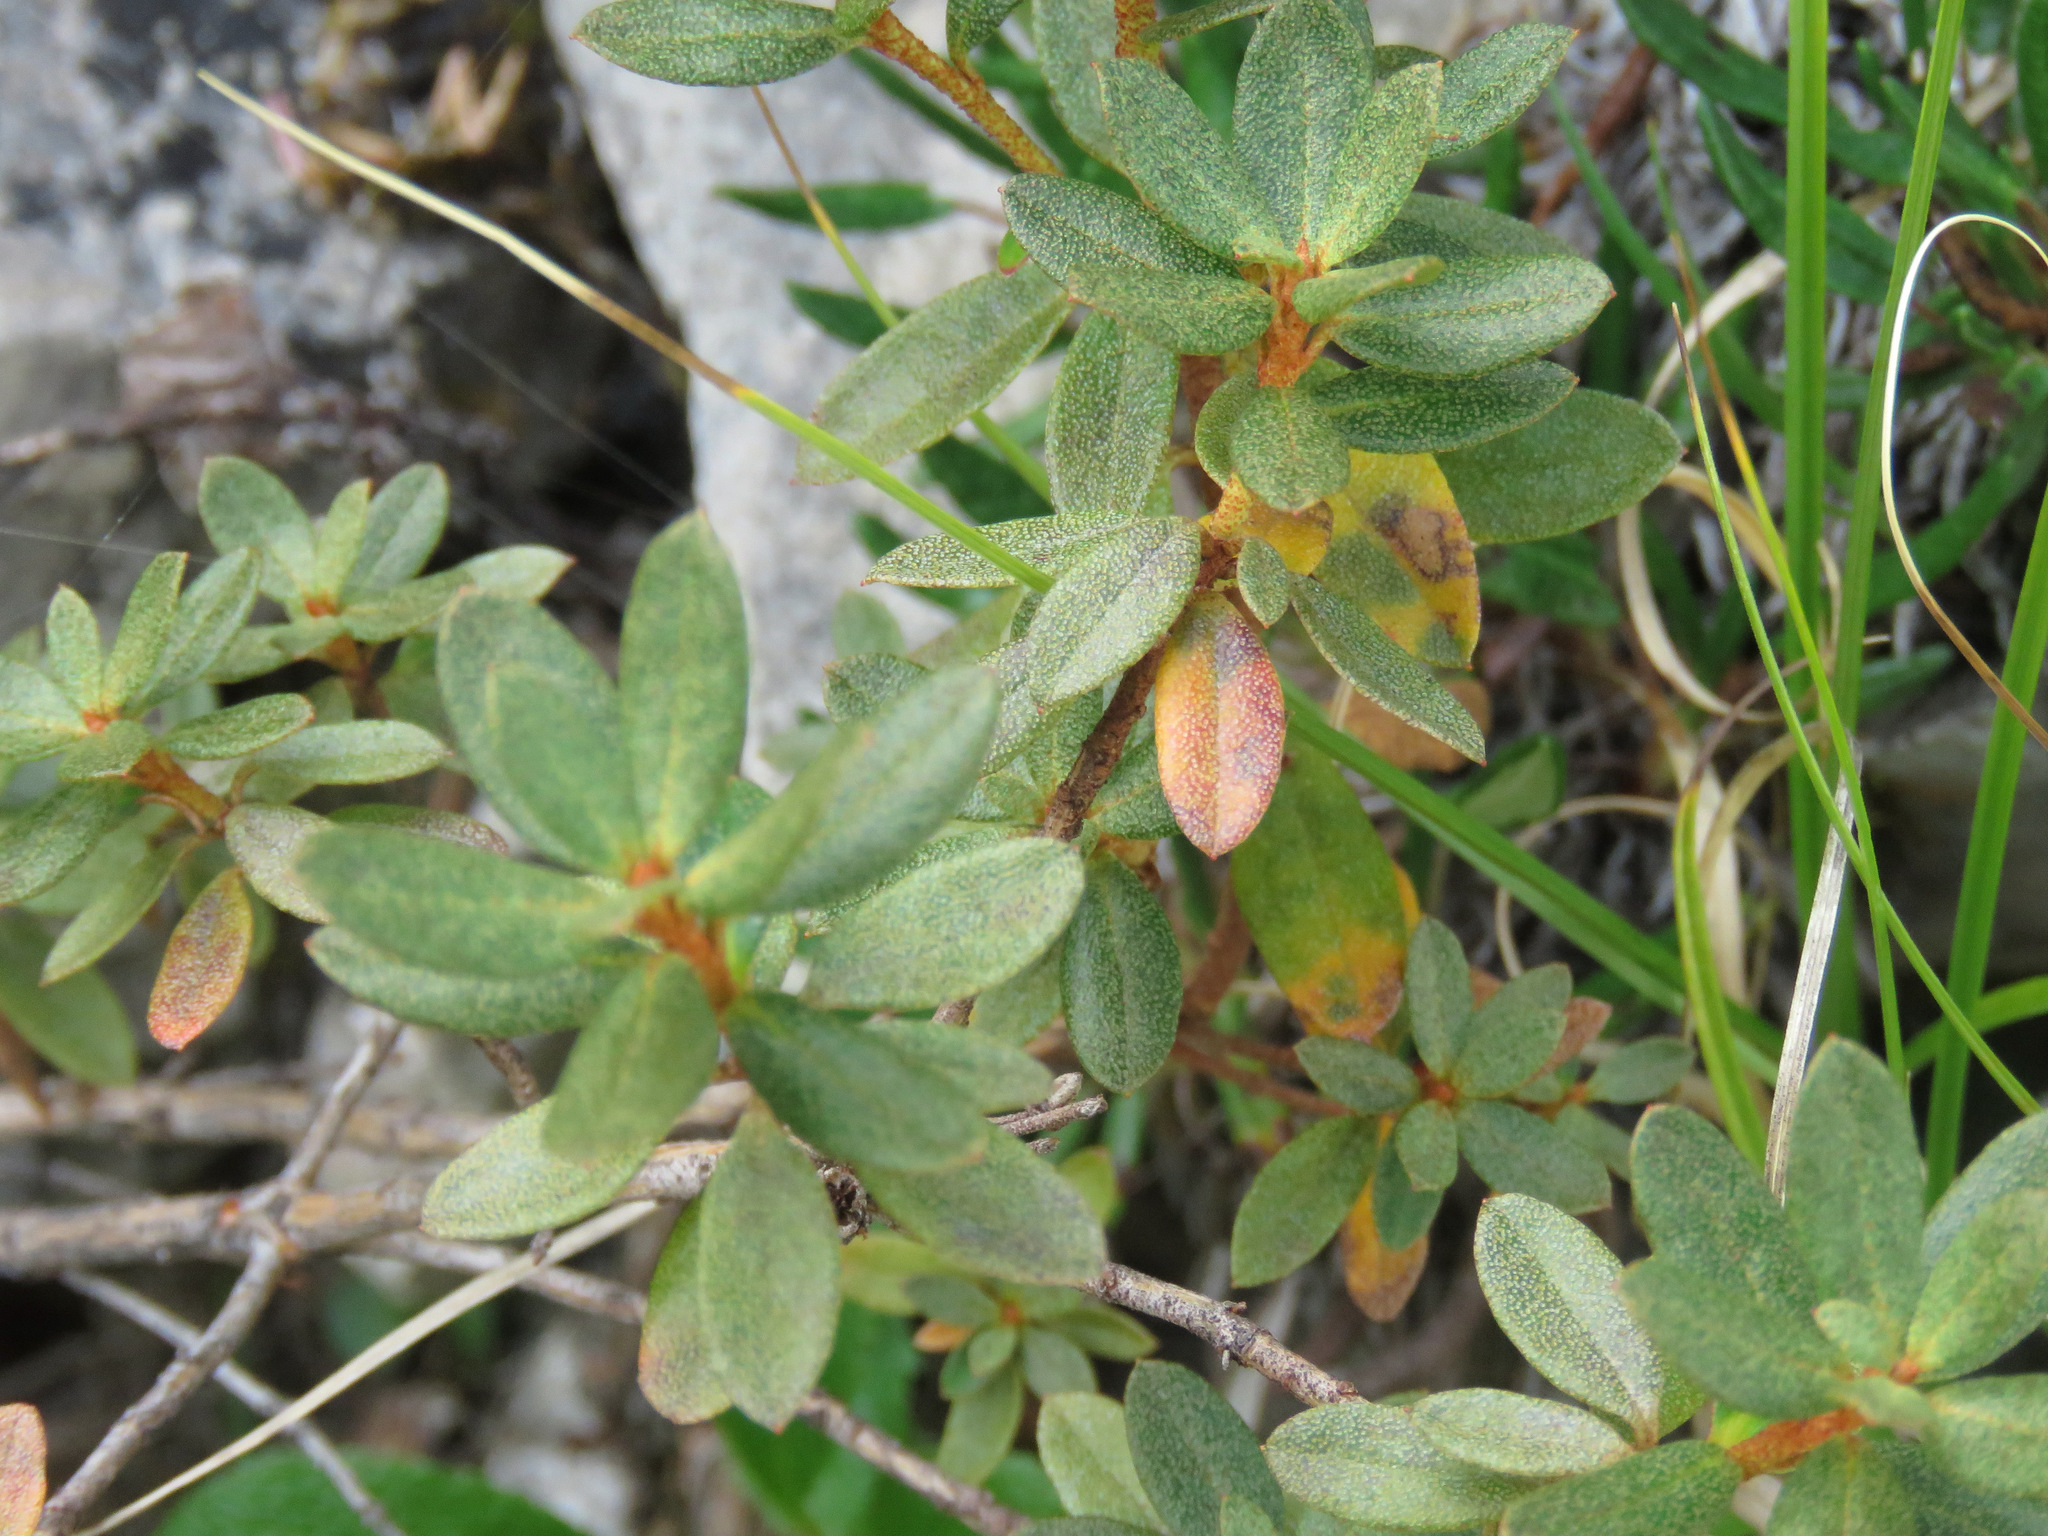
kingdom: Plantae
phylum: Tracheophyta
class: Magnoliopsida
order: Ericales
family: Ericaceae
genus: Rhododendron
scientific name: Rhododendron lapponicum
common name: Lapland rhododendron
